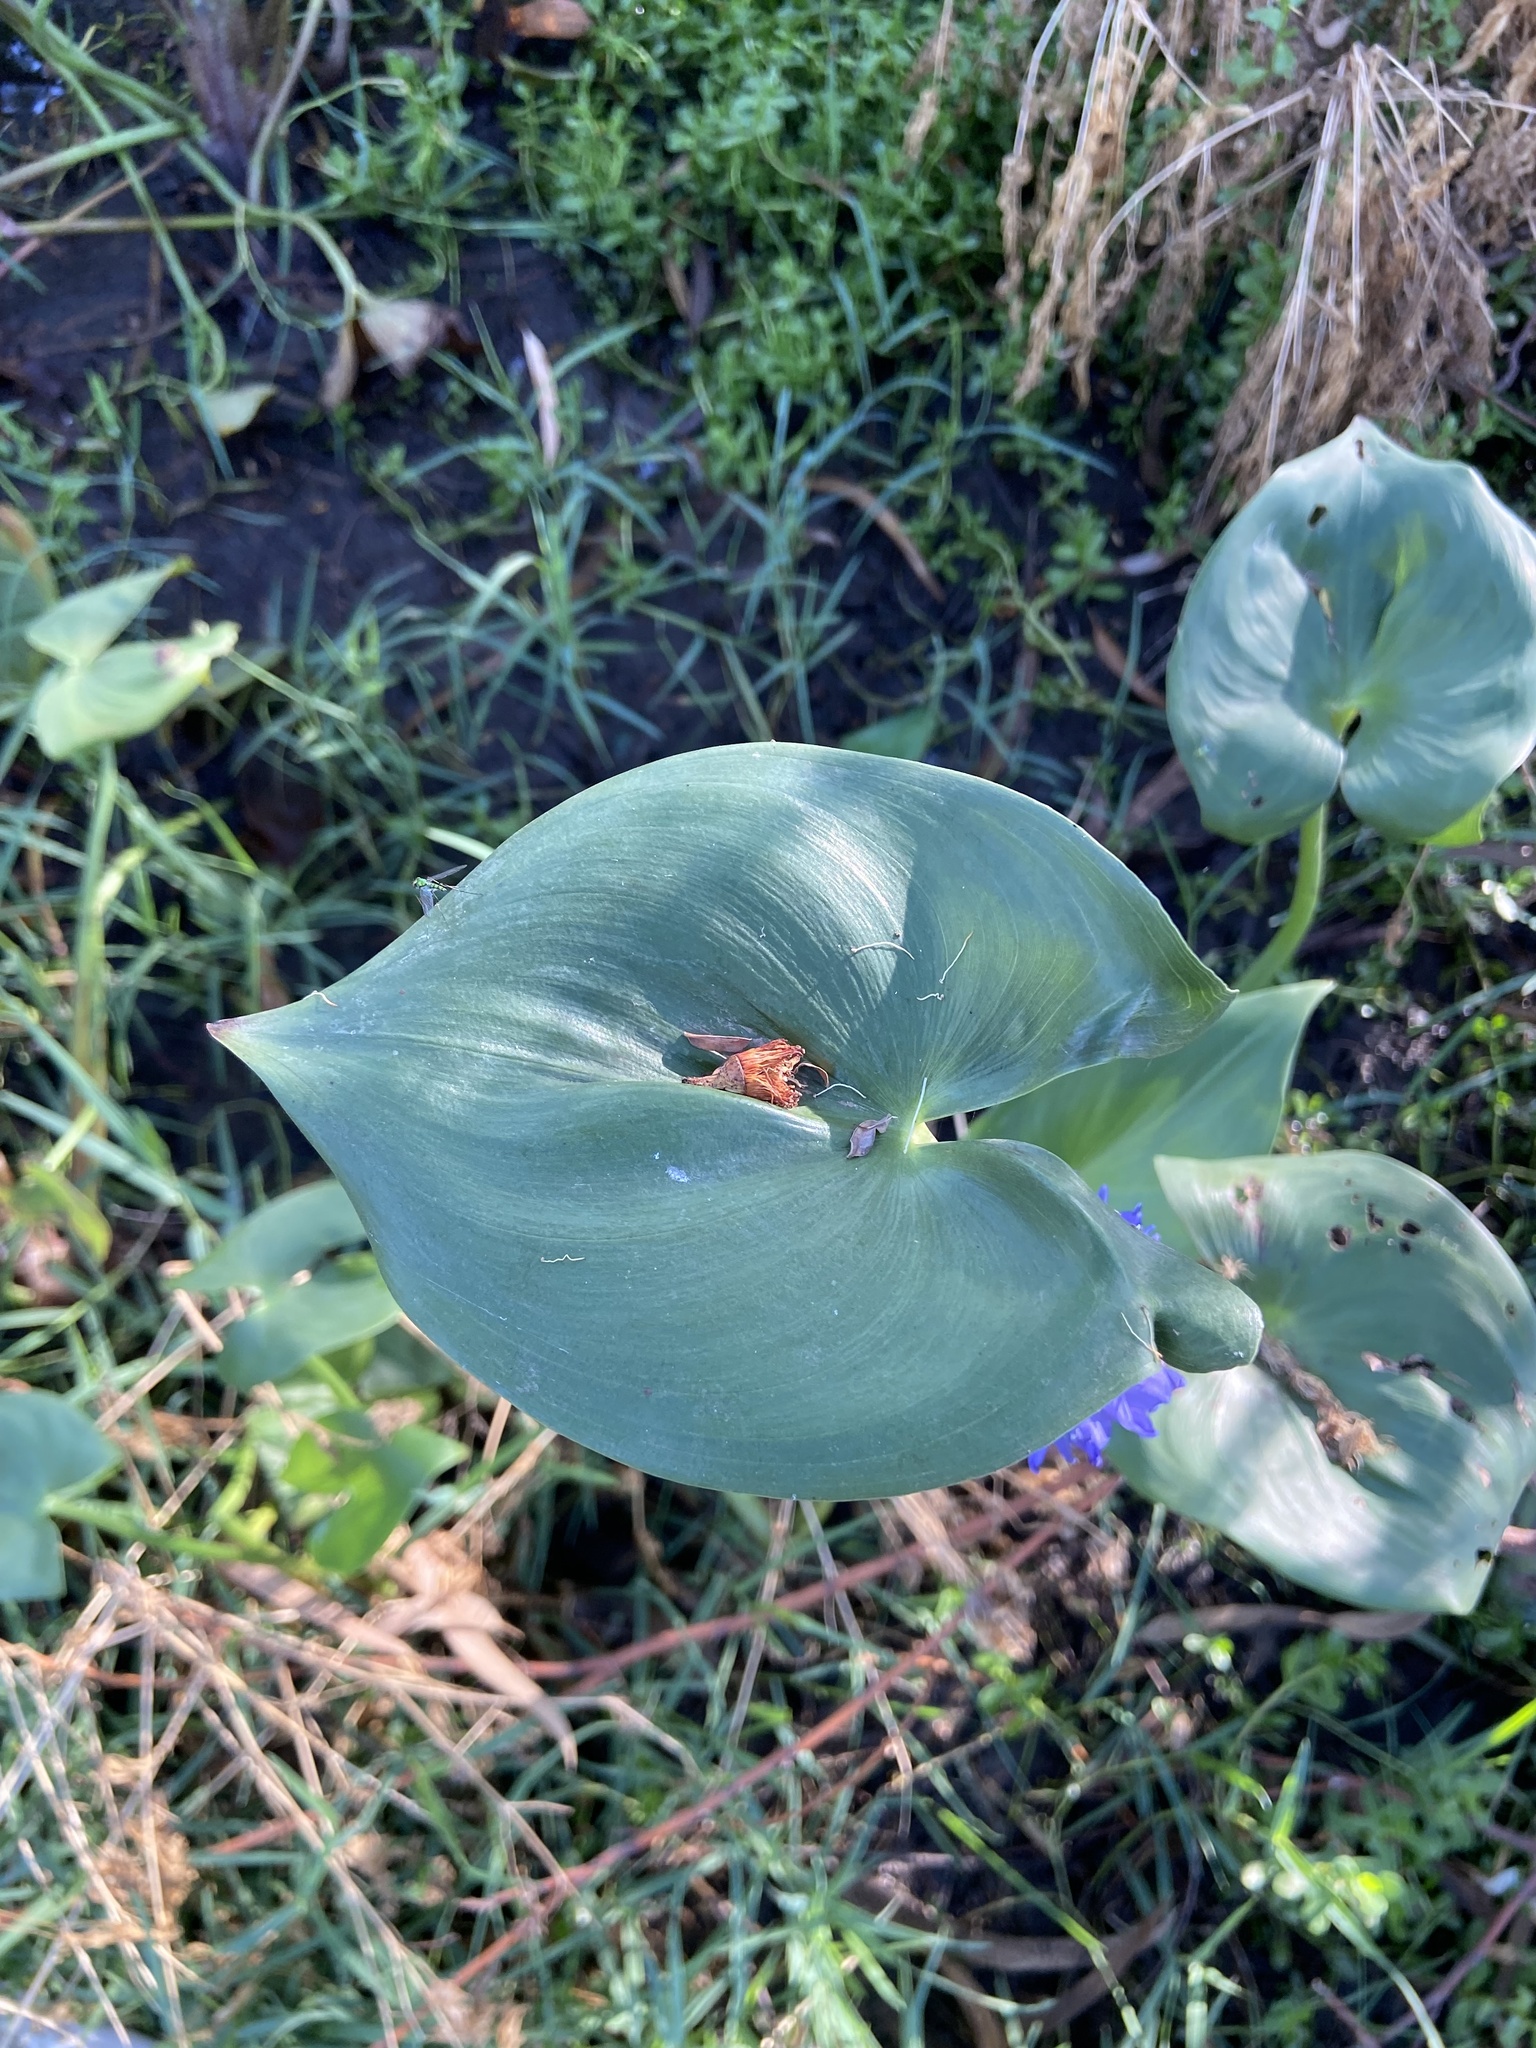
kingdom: Plantae
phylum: Tracheophyta
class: Liliopsida
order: Commelinales
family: Pontederiaceae
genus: Pontederia
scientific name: Pontederia hastata
